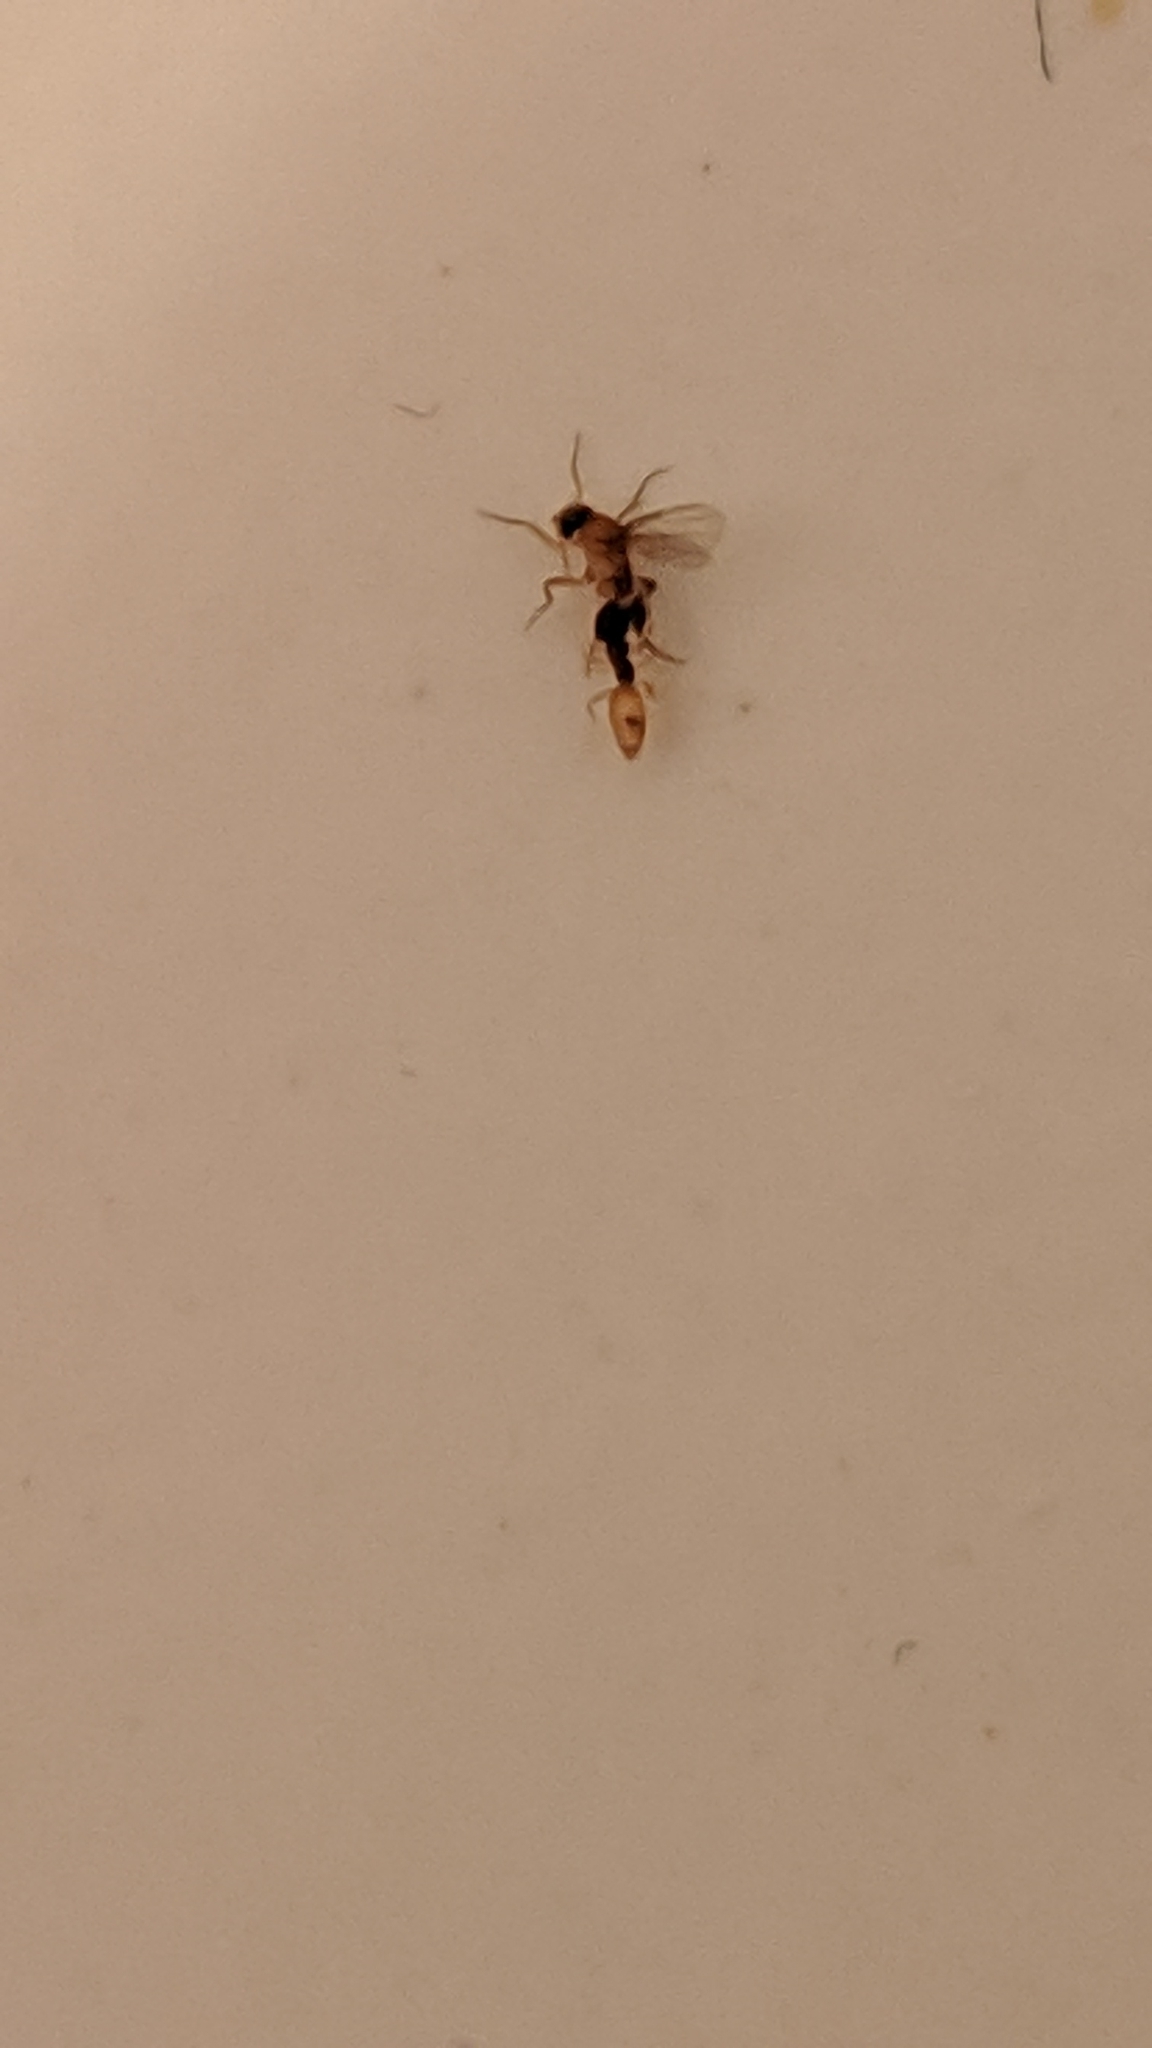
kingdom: Animalia
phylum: Arthropoda
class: Insecta
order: Hymenoptera
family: Formicidae
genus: Tapinoma
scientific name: Tapinoma melanocephalum
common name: Ghost ant
